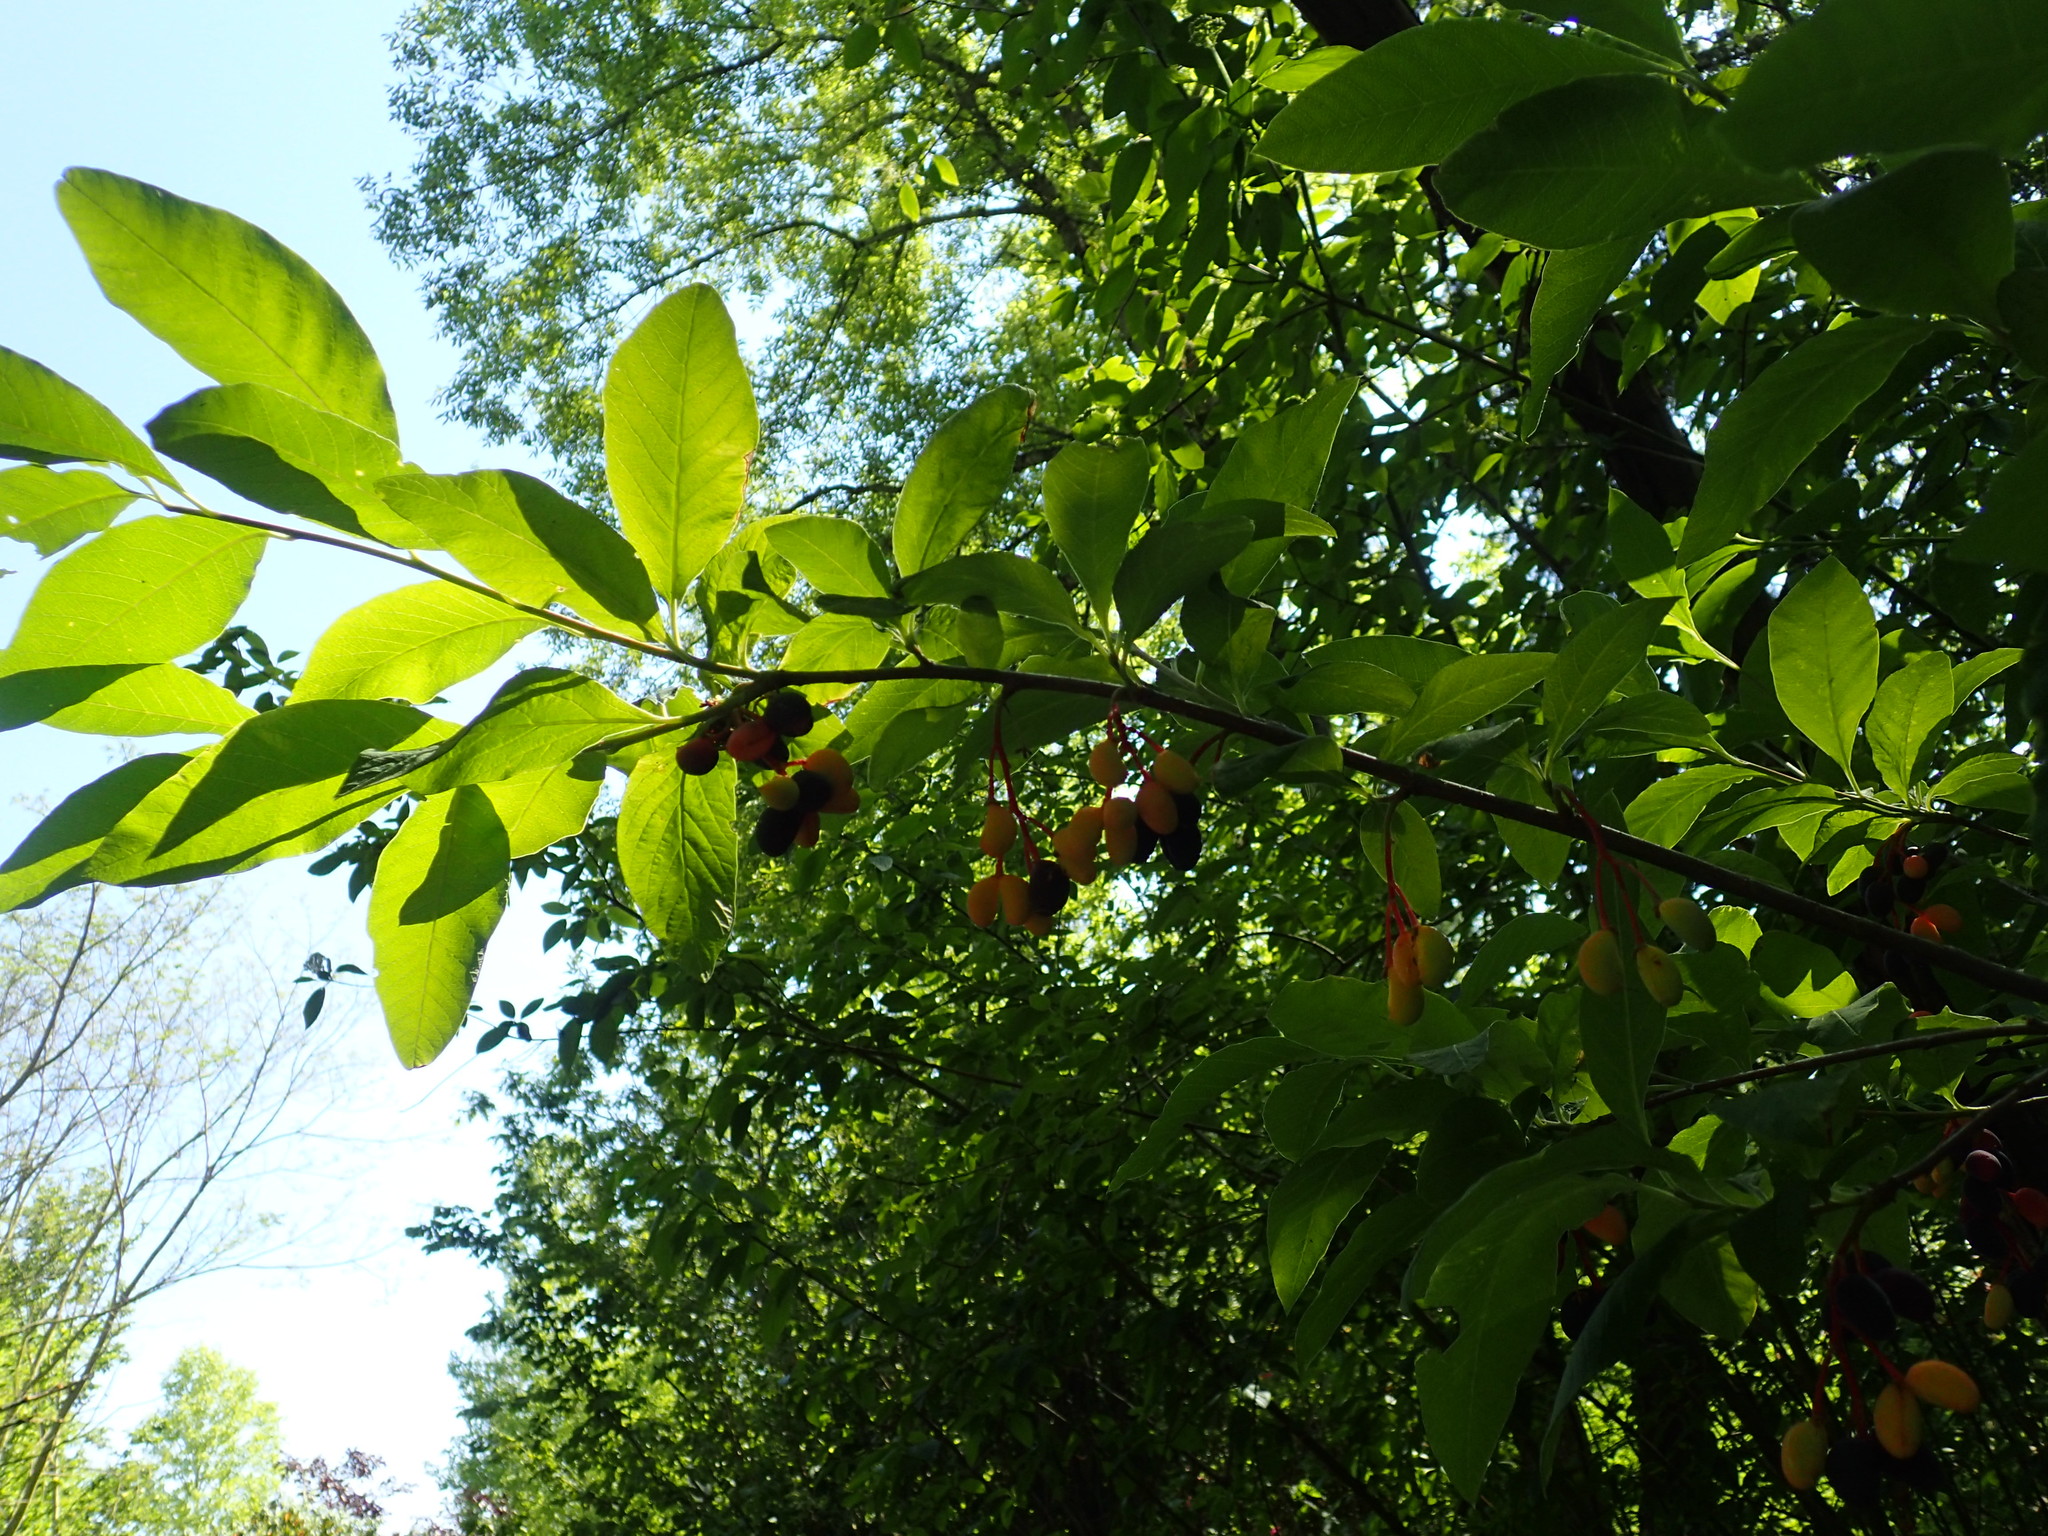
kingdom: Plantae
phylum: Tracheophyta
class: Magnoliopsida
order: Rosales
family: Rosaceae
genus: Oemleria
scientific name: Oemleria cerasiformis
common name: Osoberry
